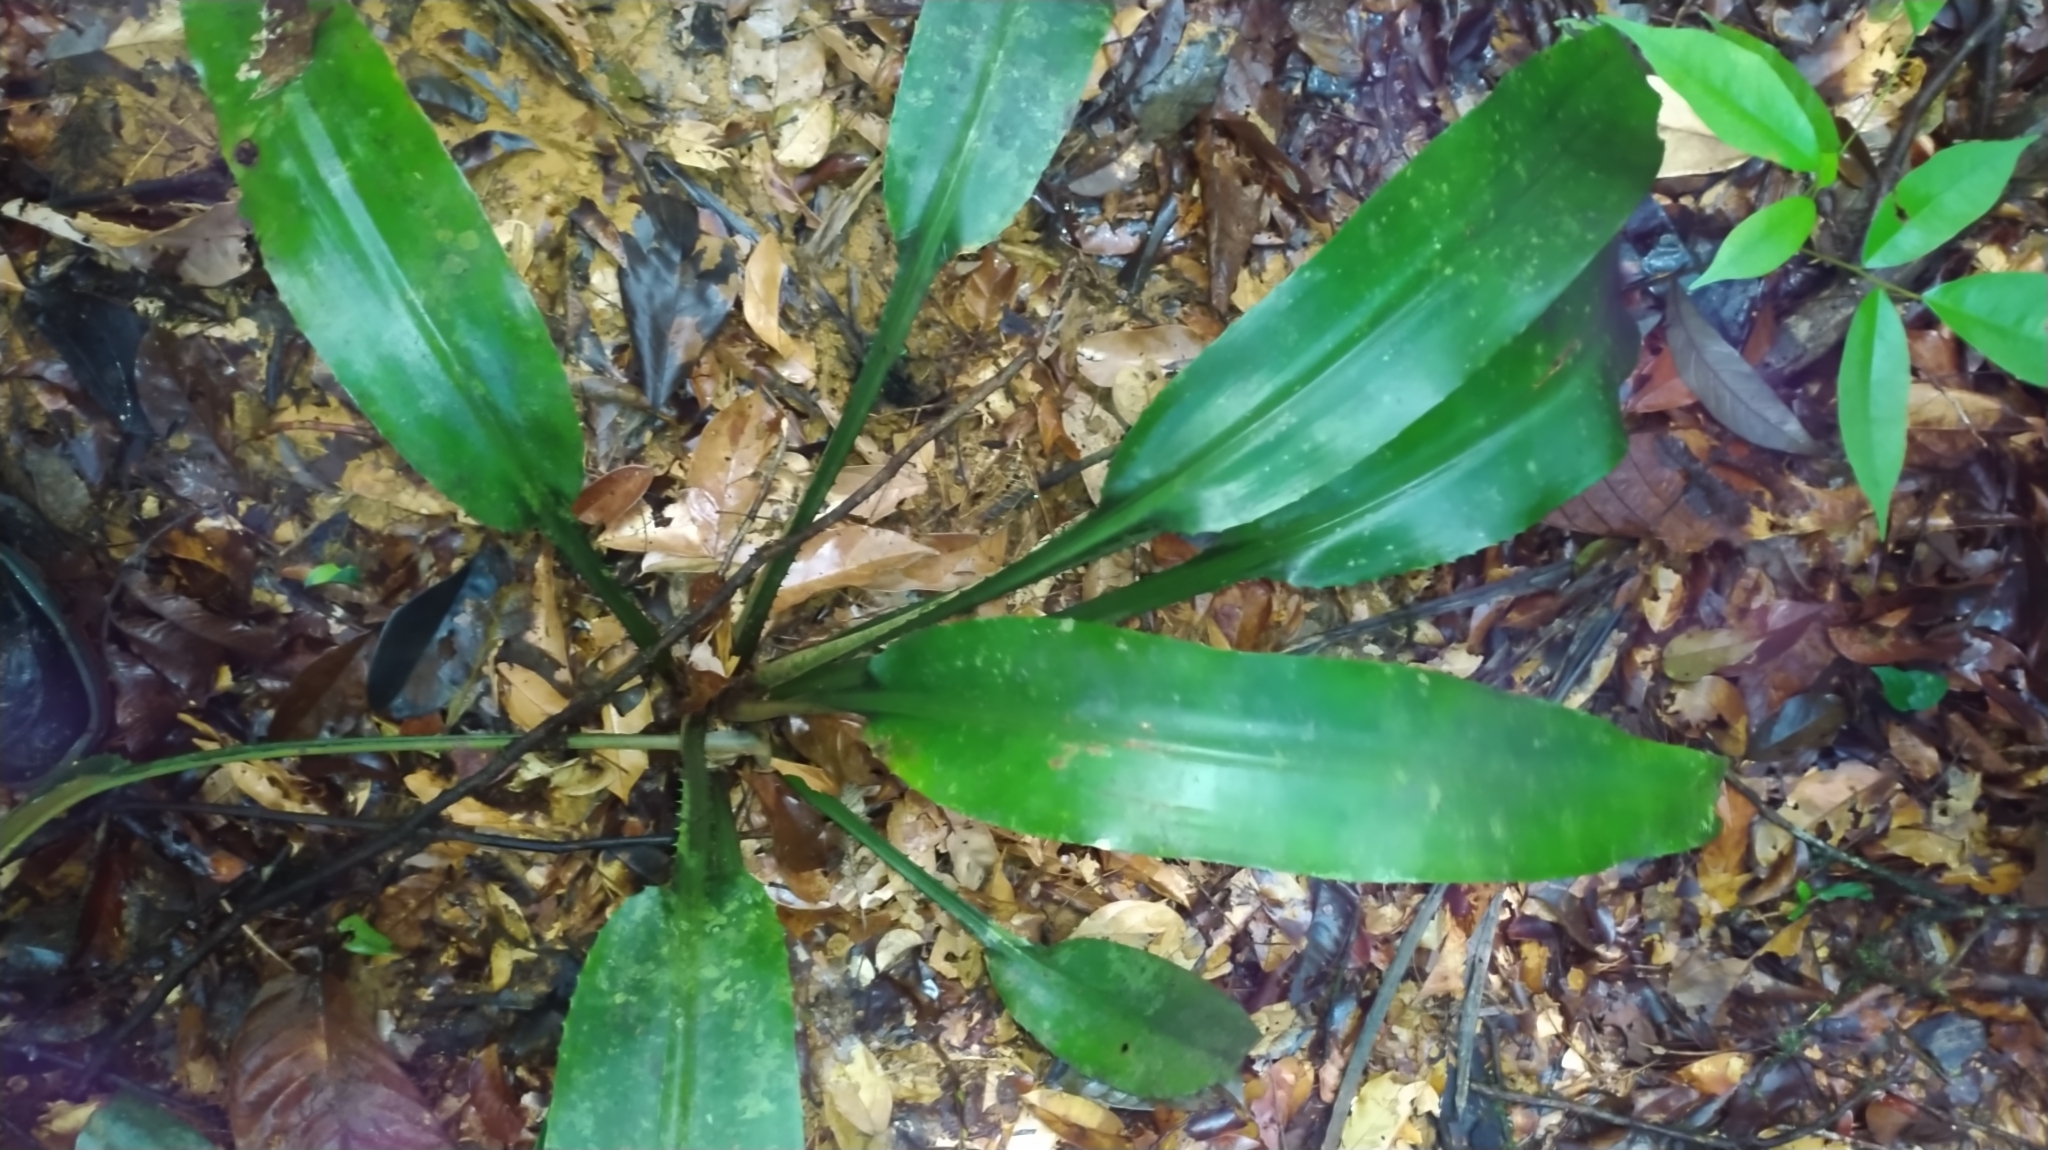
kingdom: Plantae
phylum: Tracheophyta
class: Liliopsida
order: Poales
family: Bromeliaceae
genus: Disteganthus
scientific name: Disteganthus basilateralis
